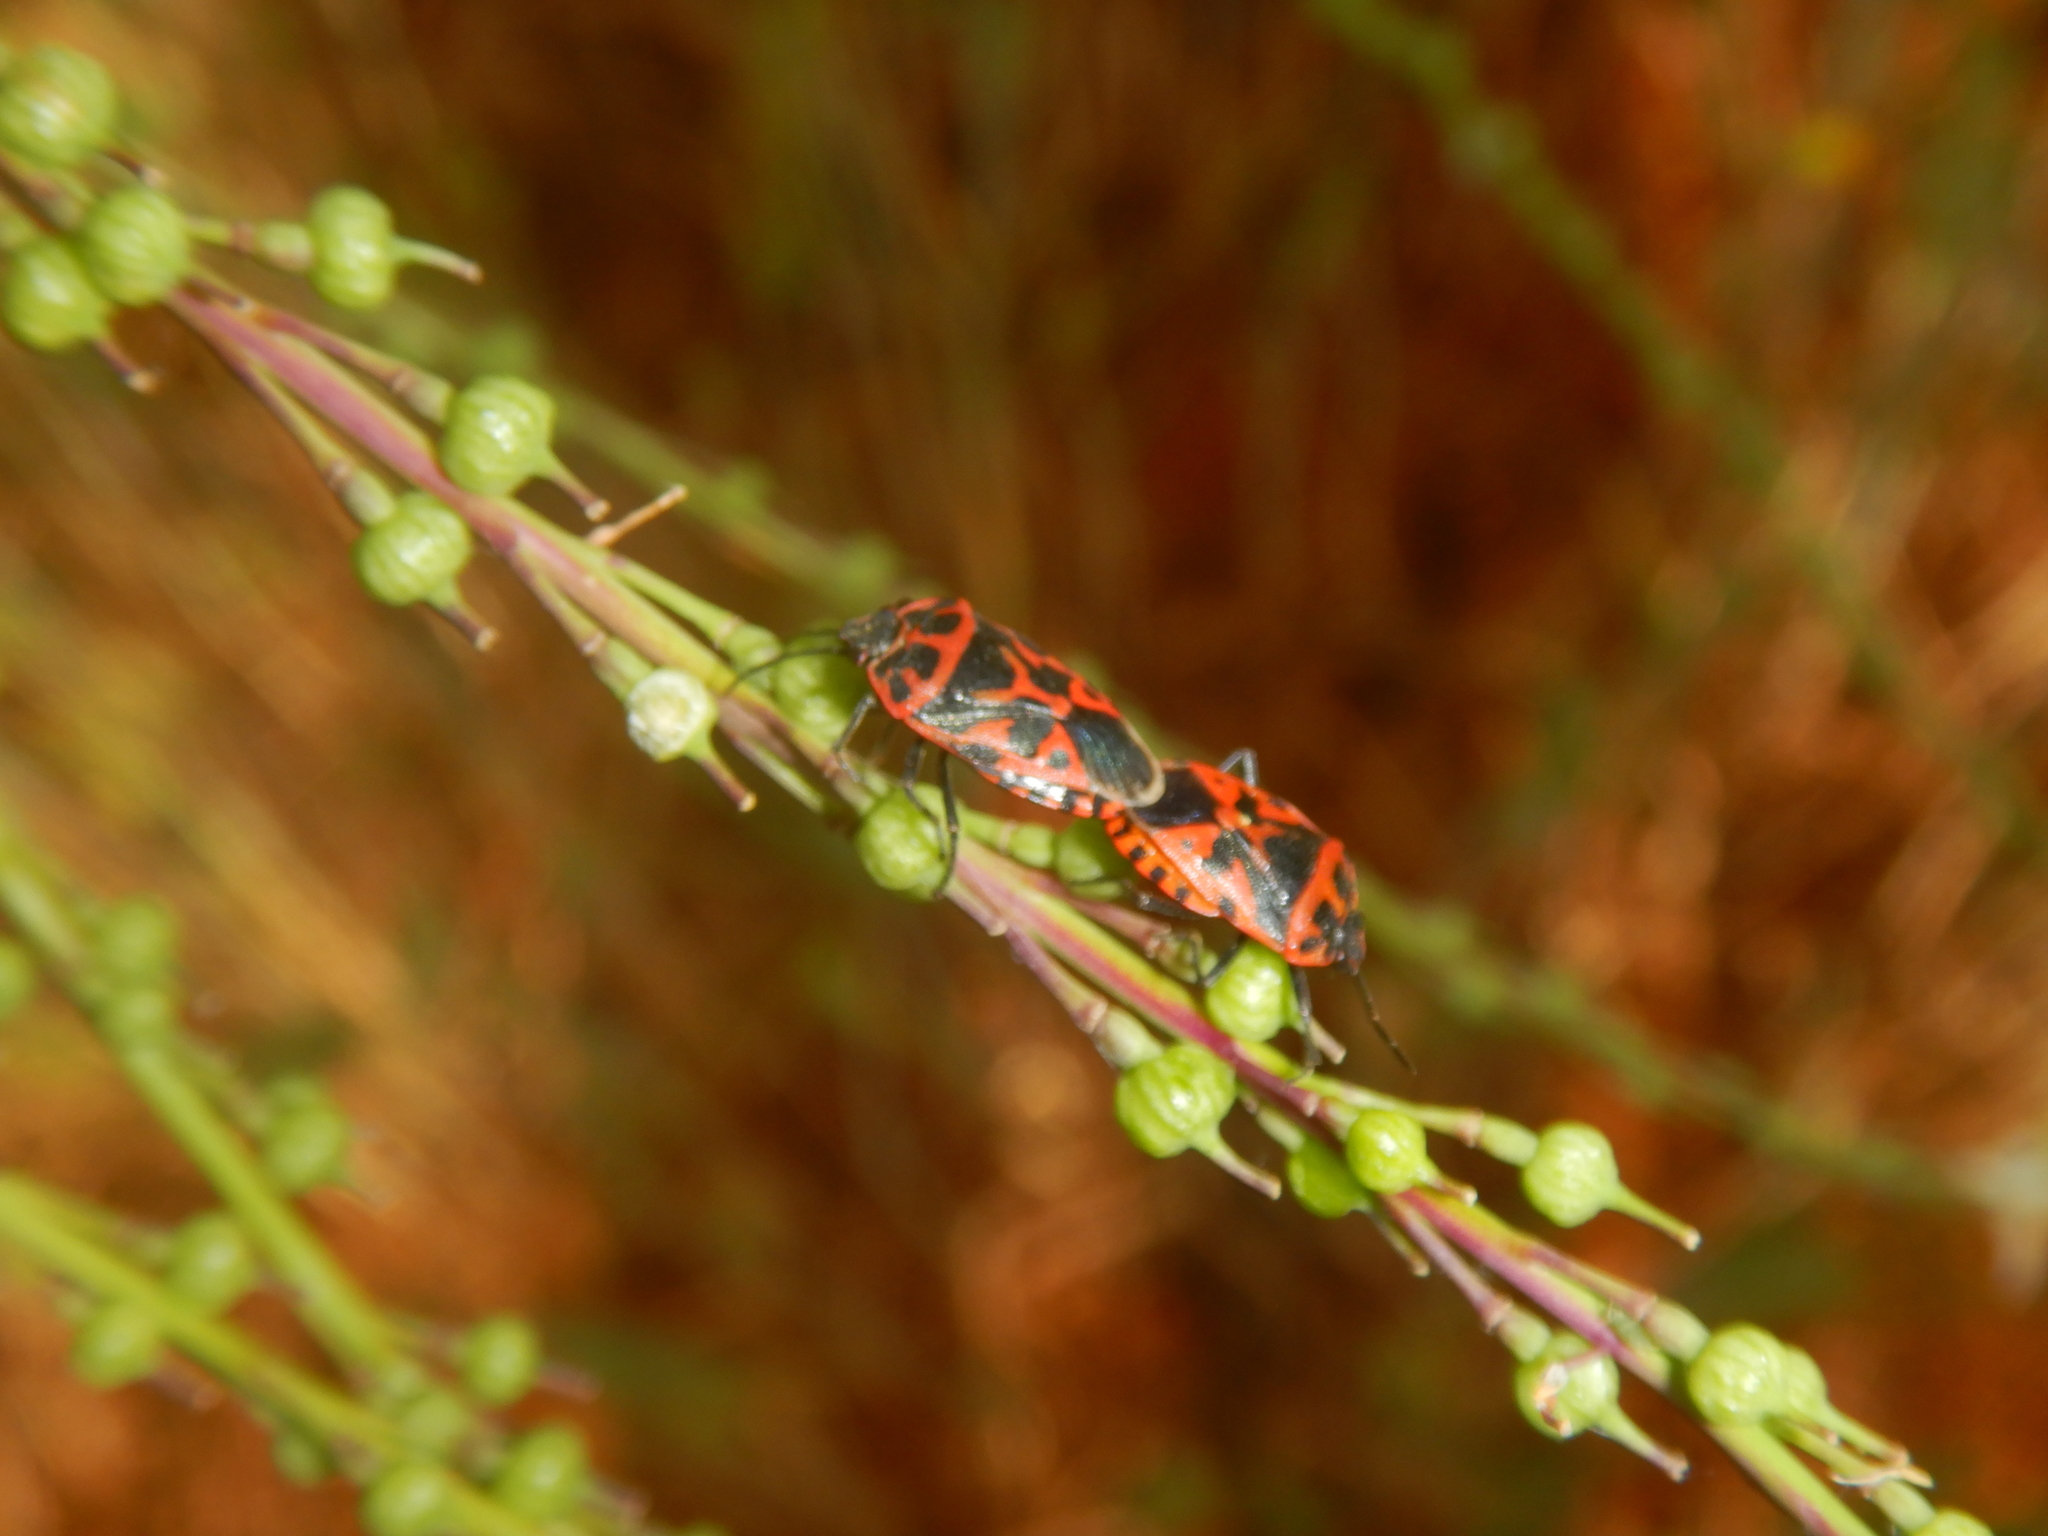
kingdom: Animalia
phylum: Arthropoda
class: Insecta
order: Hemiptera
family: Pentatomidae
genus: Eurydema
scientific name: Eurydema ventralis
